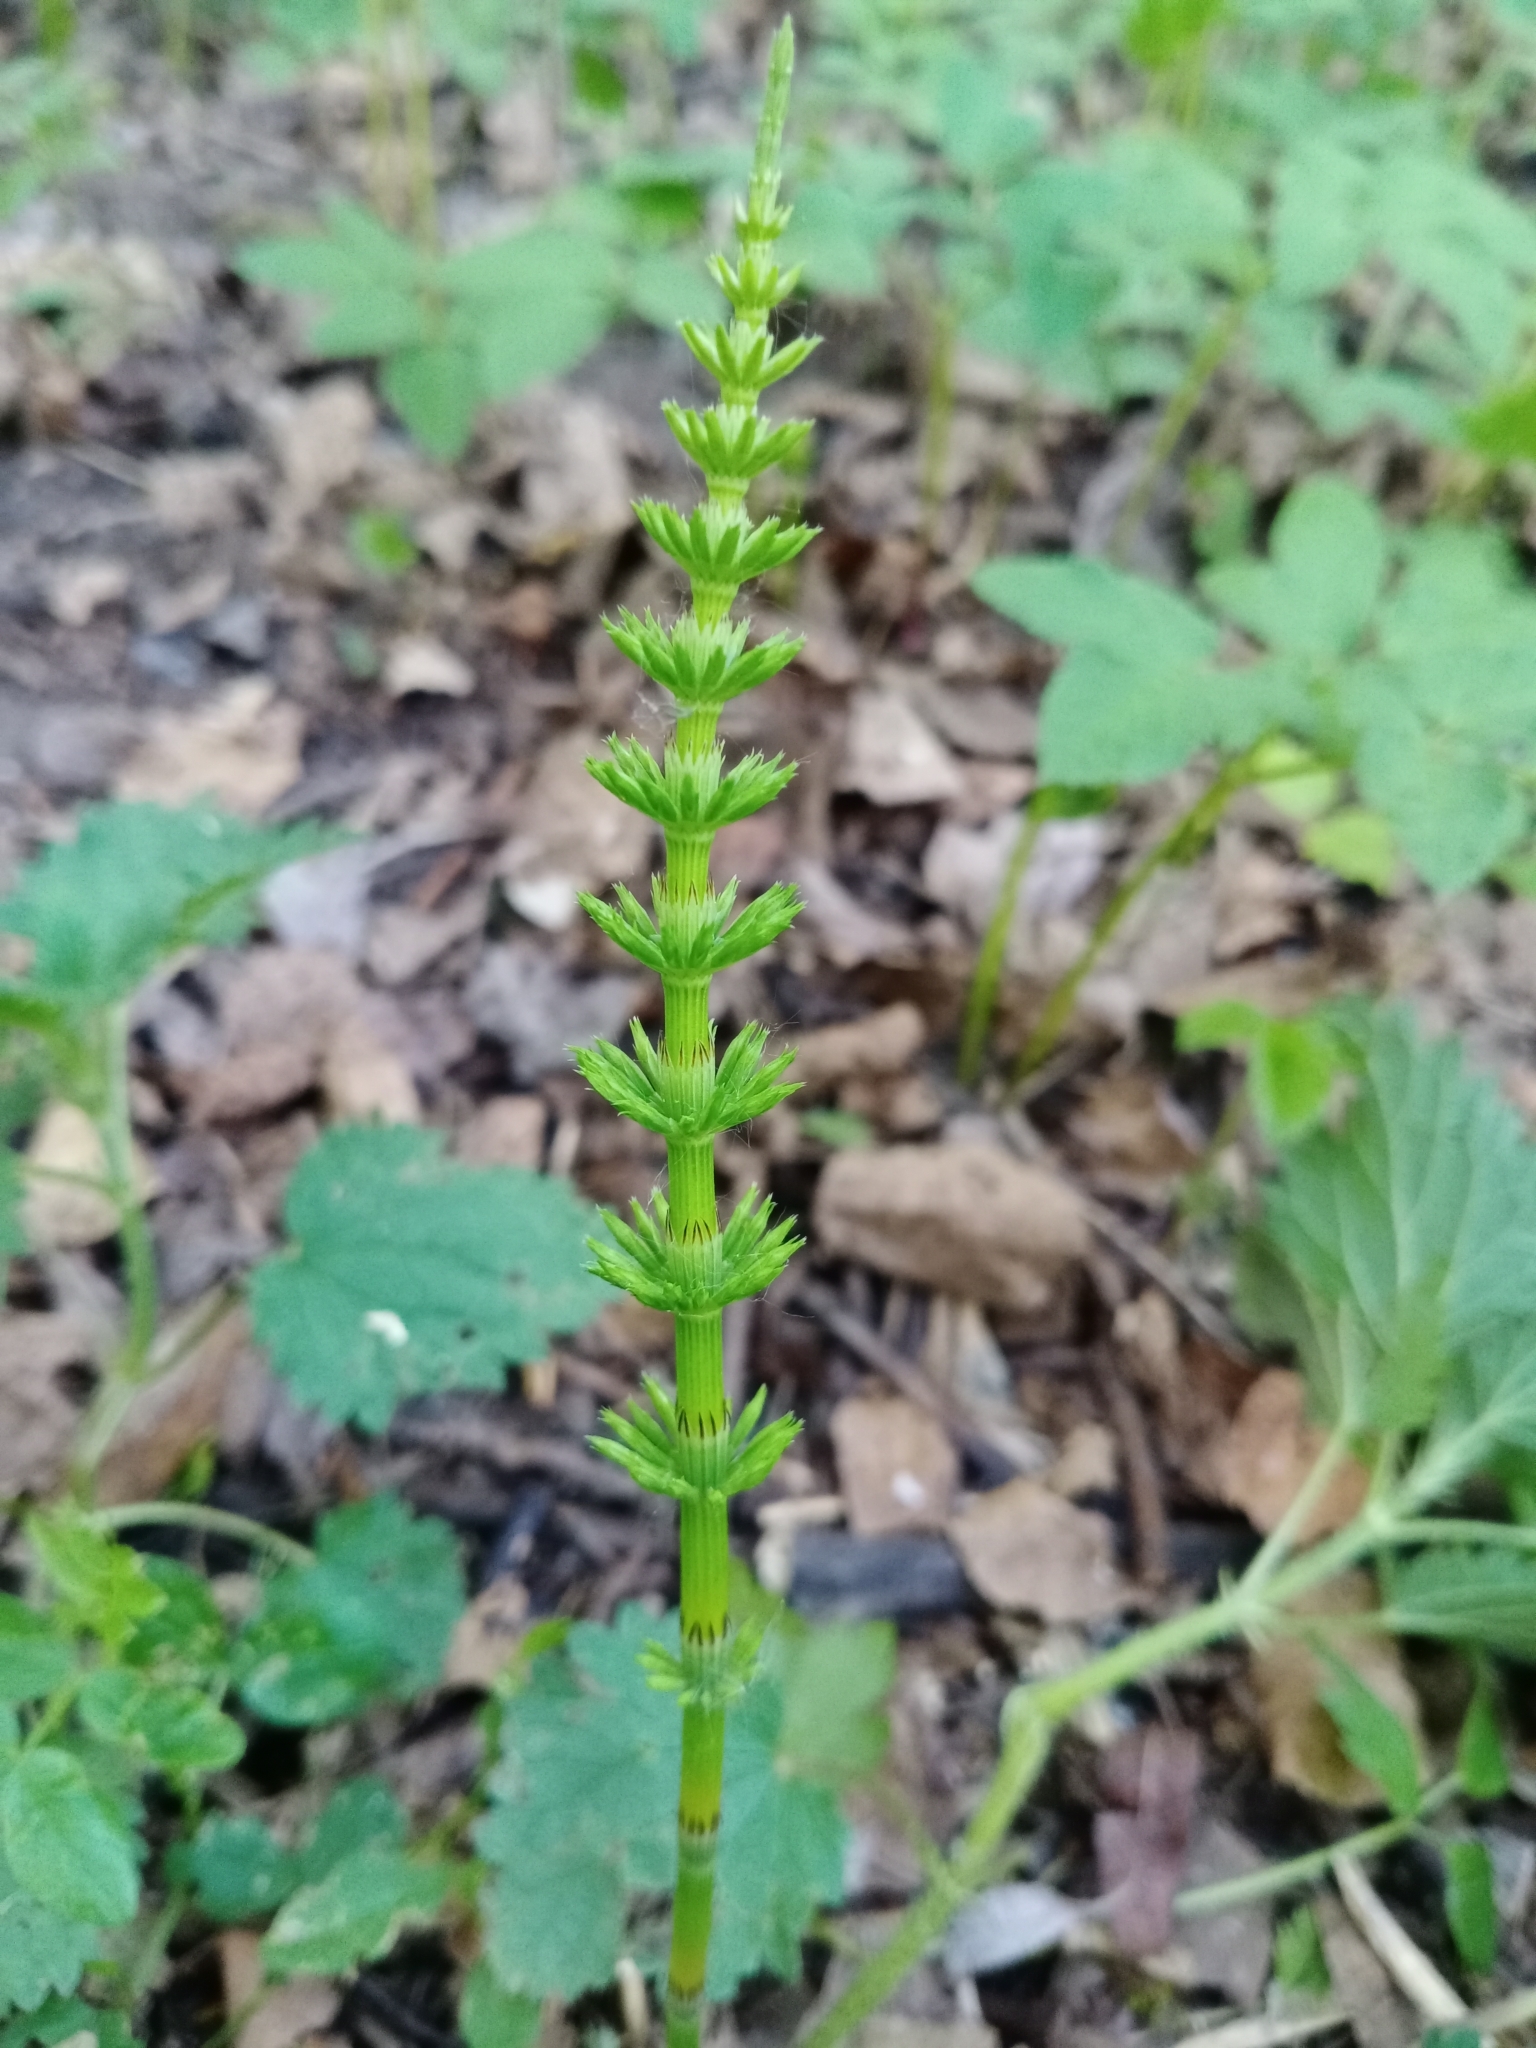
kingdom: Plantae
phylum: Tracheophyta
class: Polypodiopsida
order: Equisetales
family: Equisetaceae
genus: Equisetum
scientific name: Equisetum arvense
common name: Field horsetail
